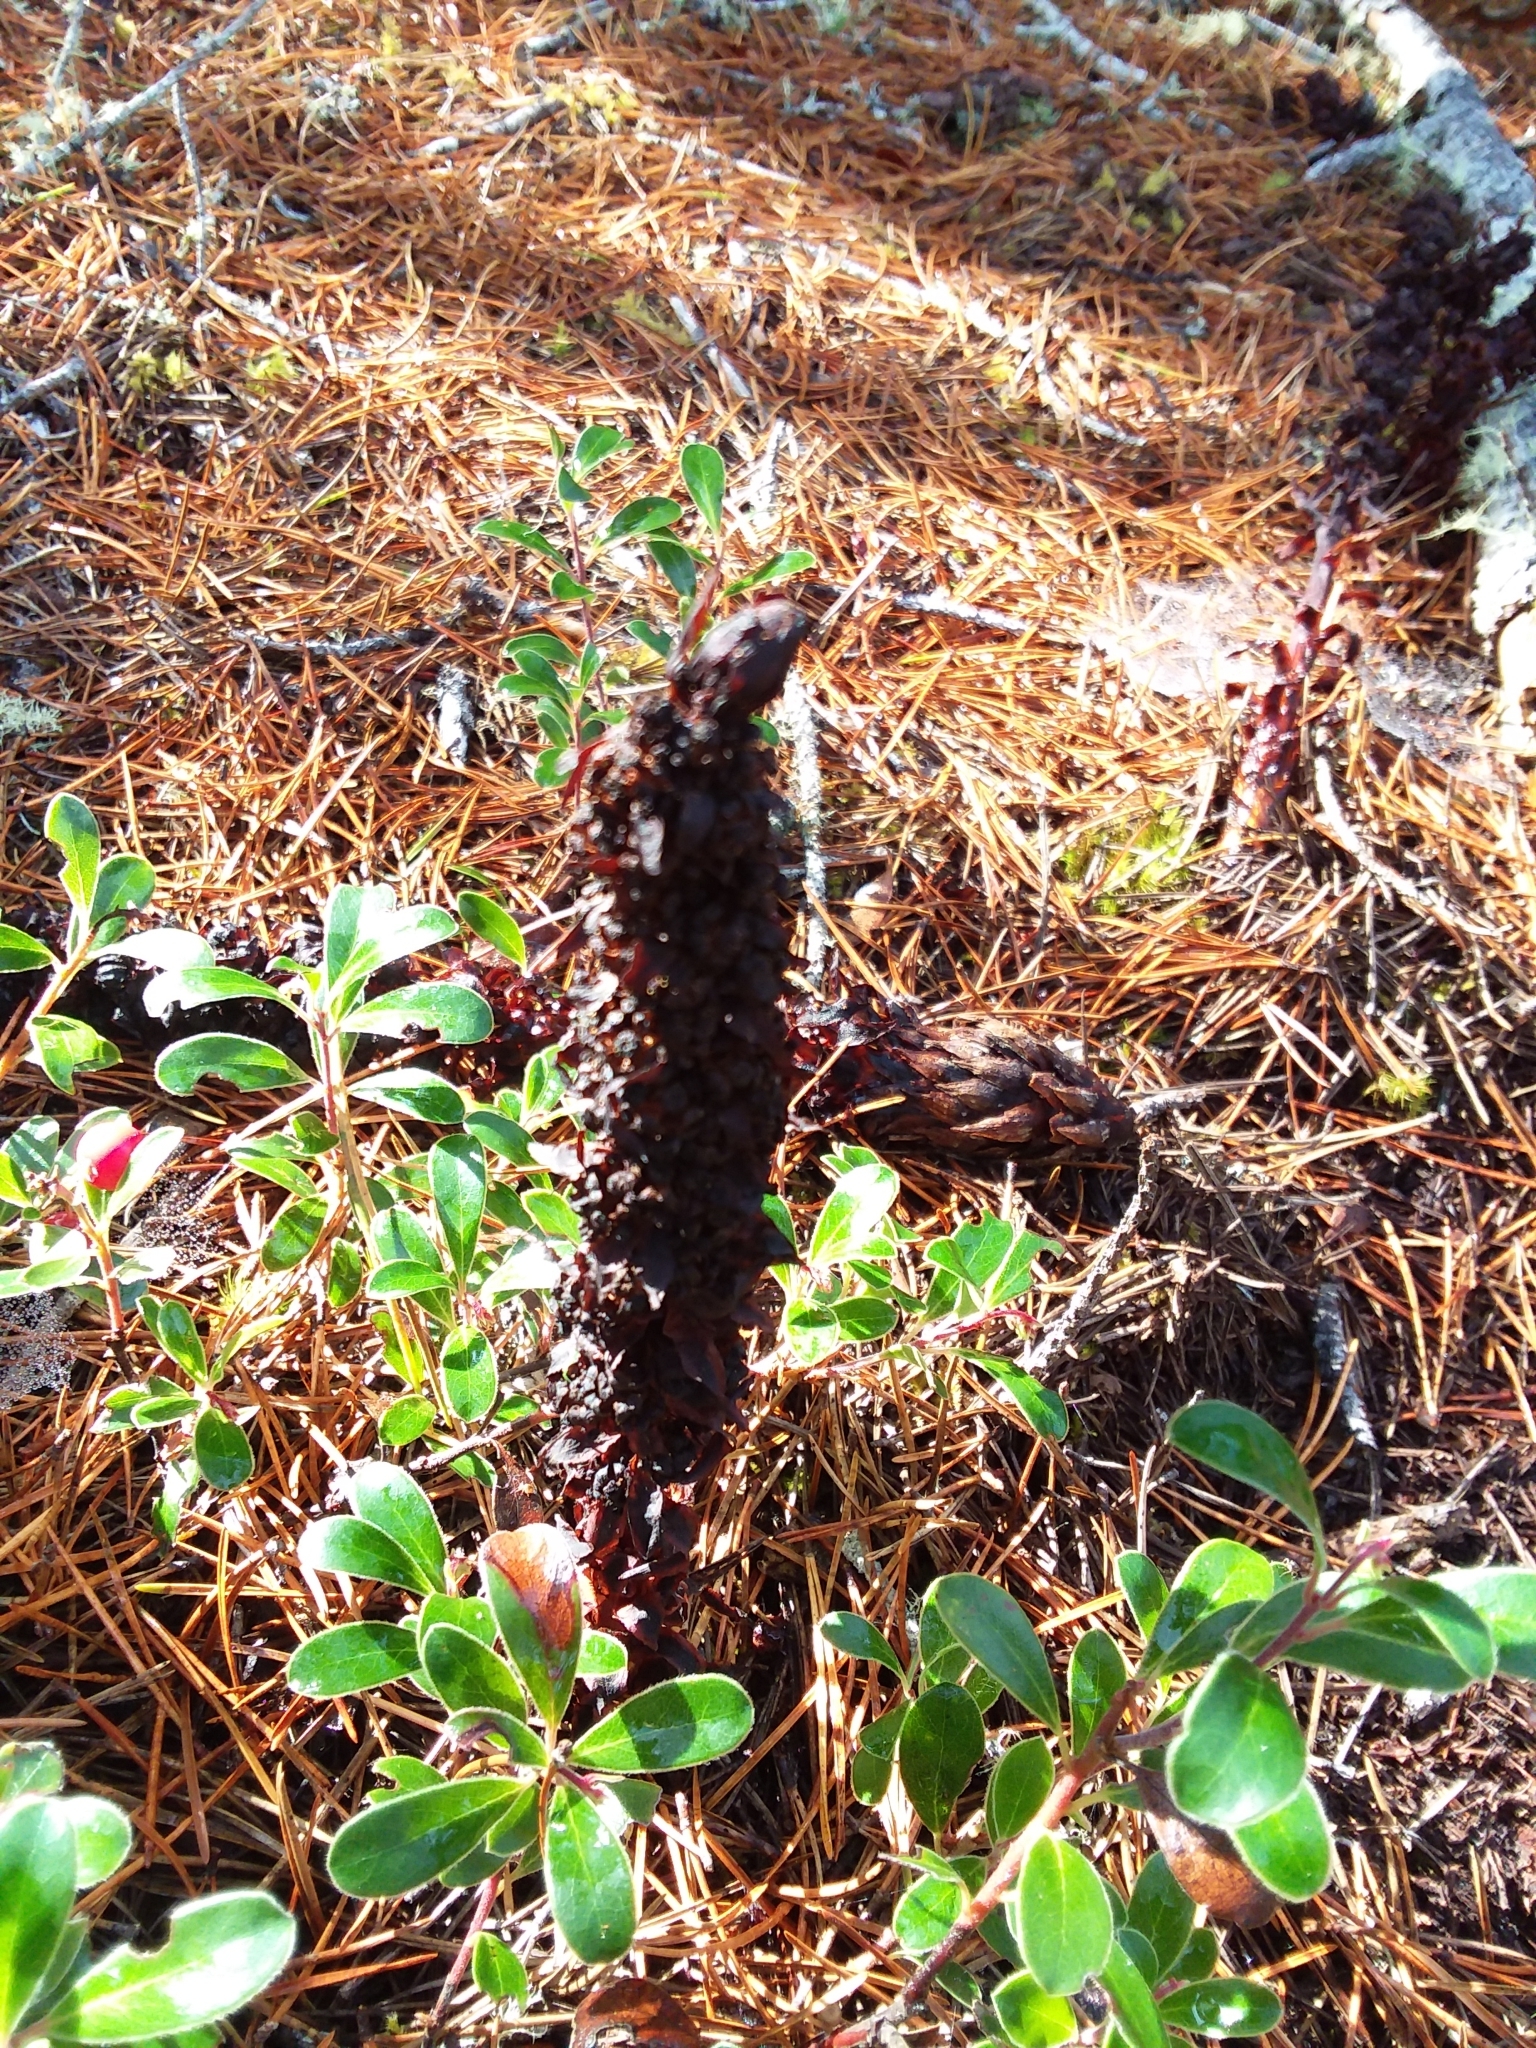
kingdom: Plantae
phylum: Tracheophyta
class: Magnoliopsida
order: Ericales
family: Ericaceae
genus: Allotropa
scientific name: Allotropa virgata
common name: Candy-striped allotropa
